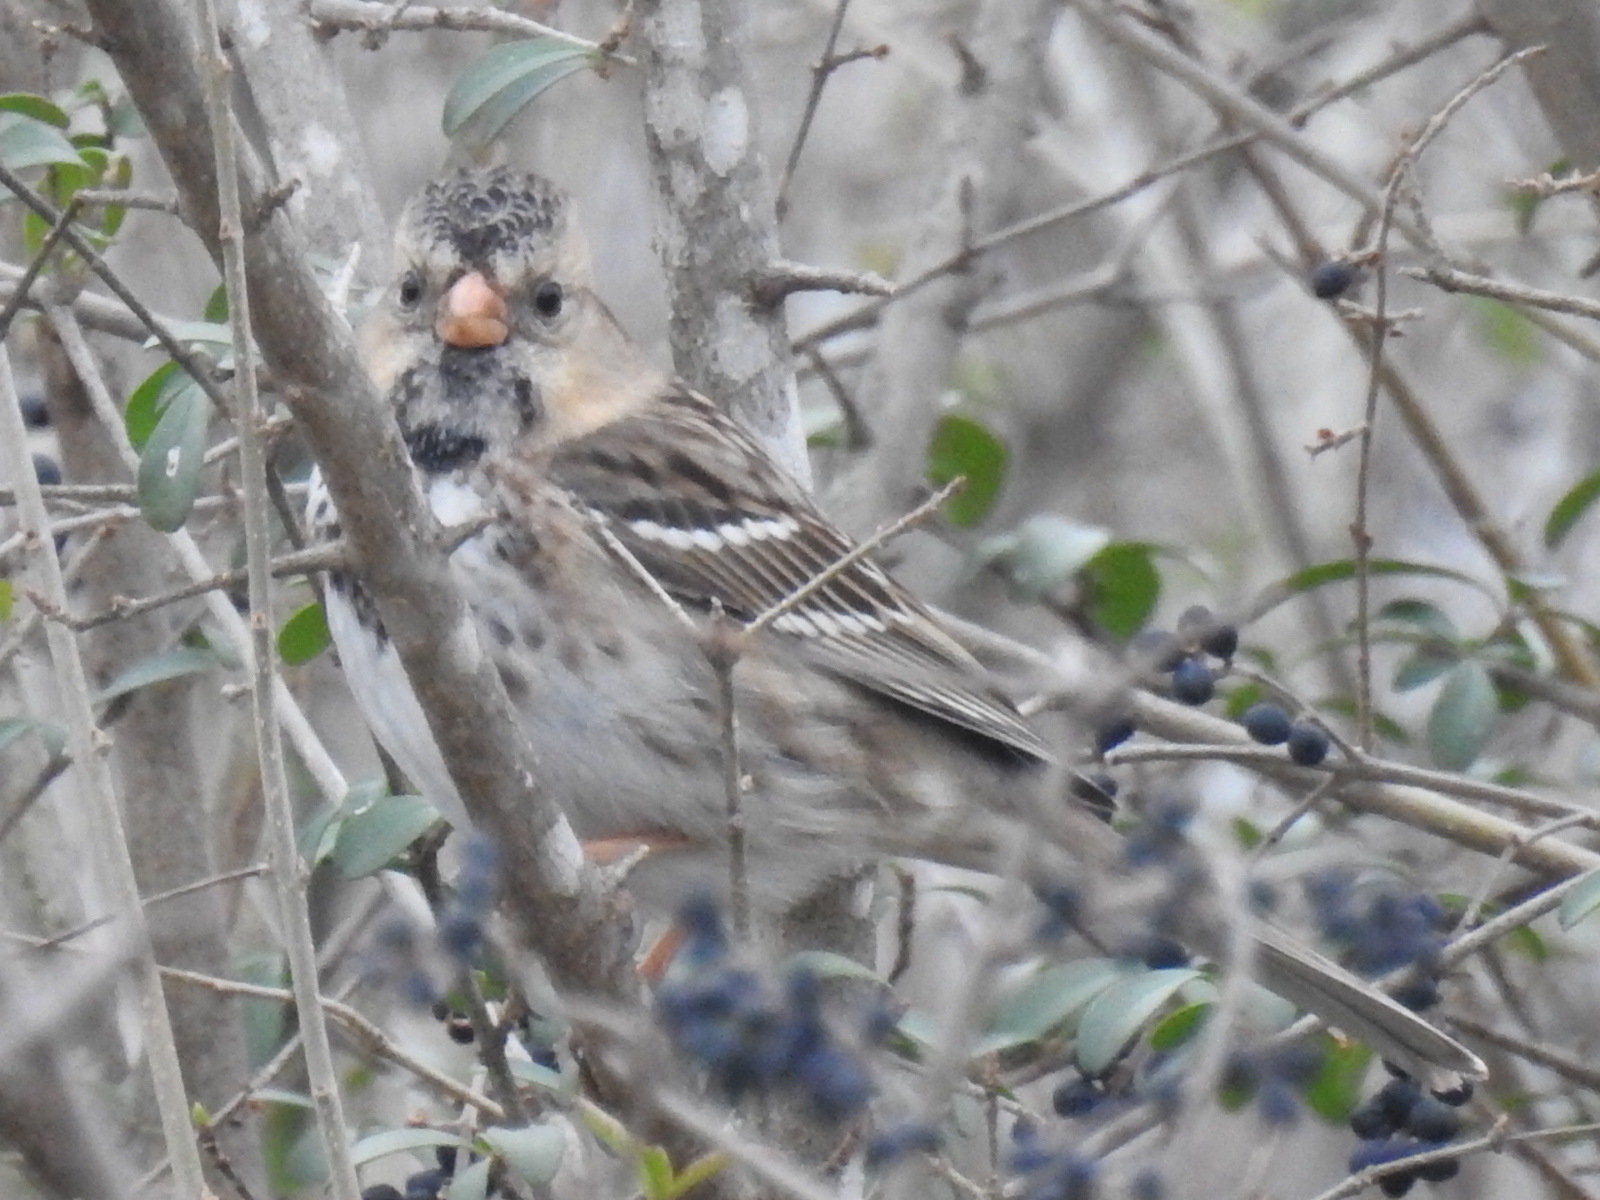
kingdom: Animalia
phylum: Chordata
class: Aves
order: Passeriformes
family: Passerellidae
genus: Zonotrichia
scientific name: Zonotrichia querula
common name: Harris's sparrow
